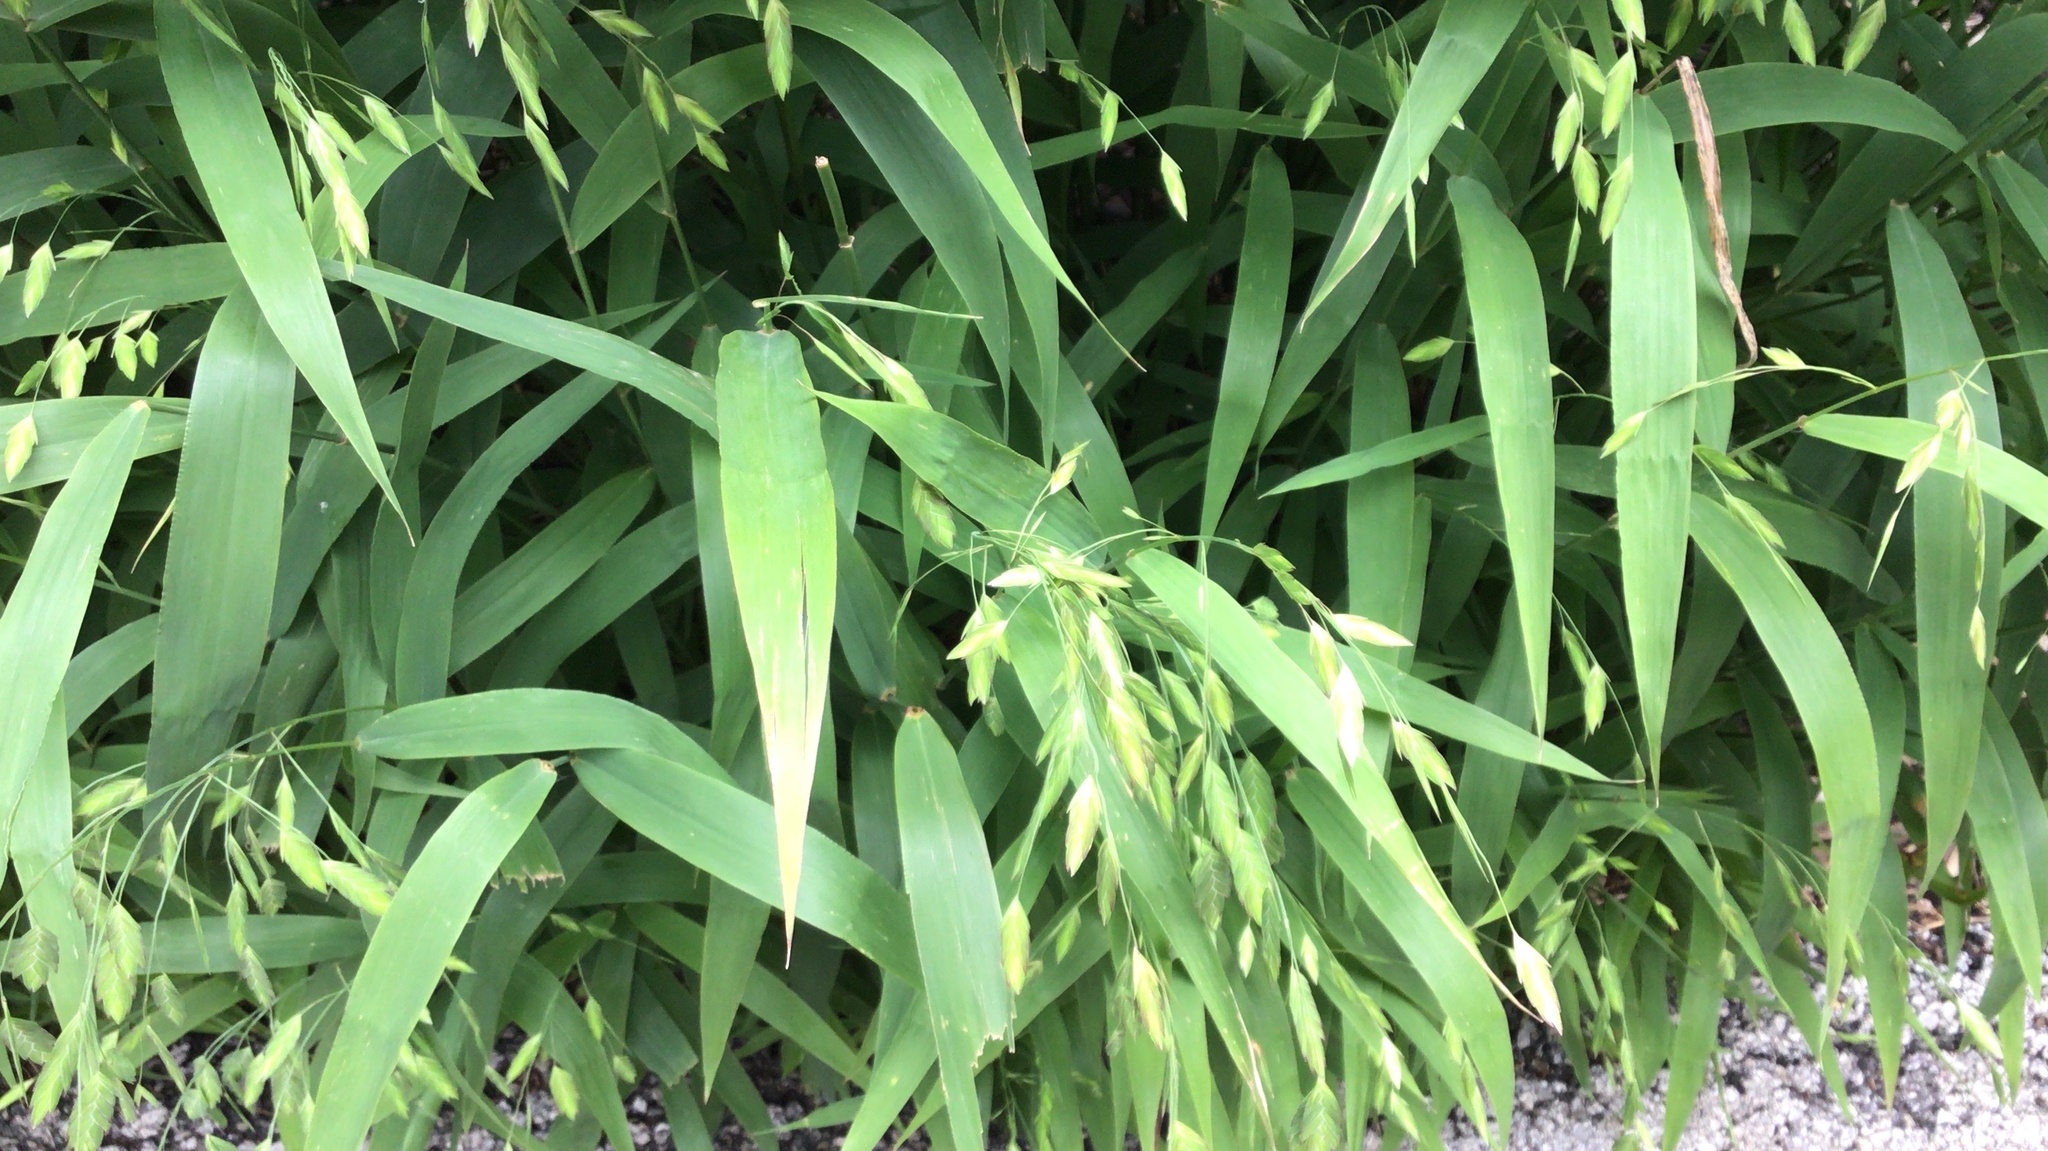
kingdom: Plantae
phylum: Tracheophyta
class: Liliopsida
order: Poales
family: Poaceae
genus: Chasmanthium
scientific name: Chasmanthium latifolium
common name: Broad-leaved chasmanthium
